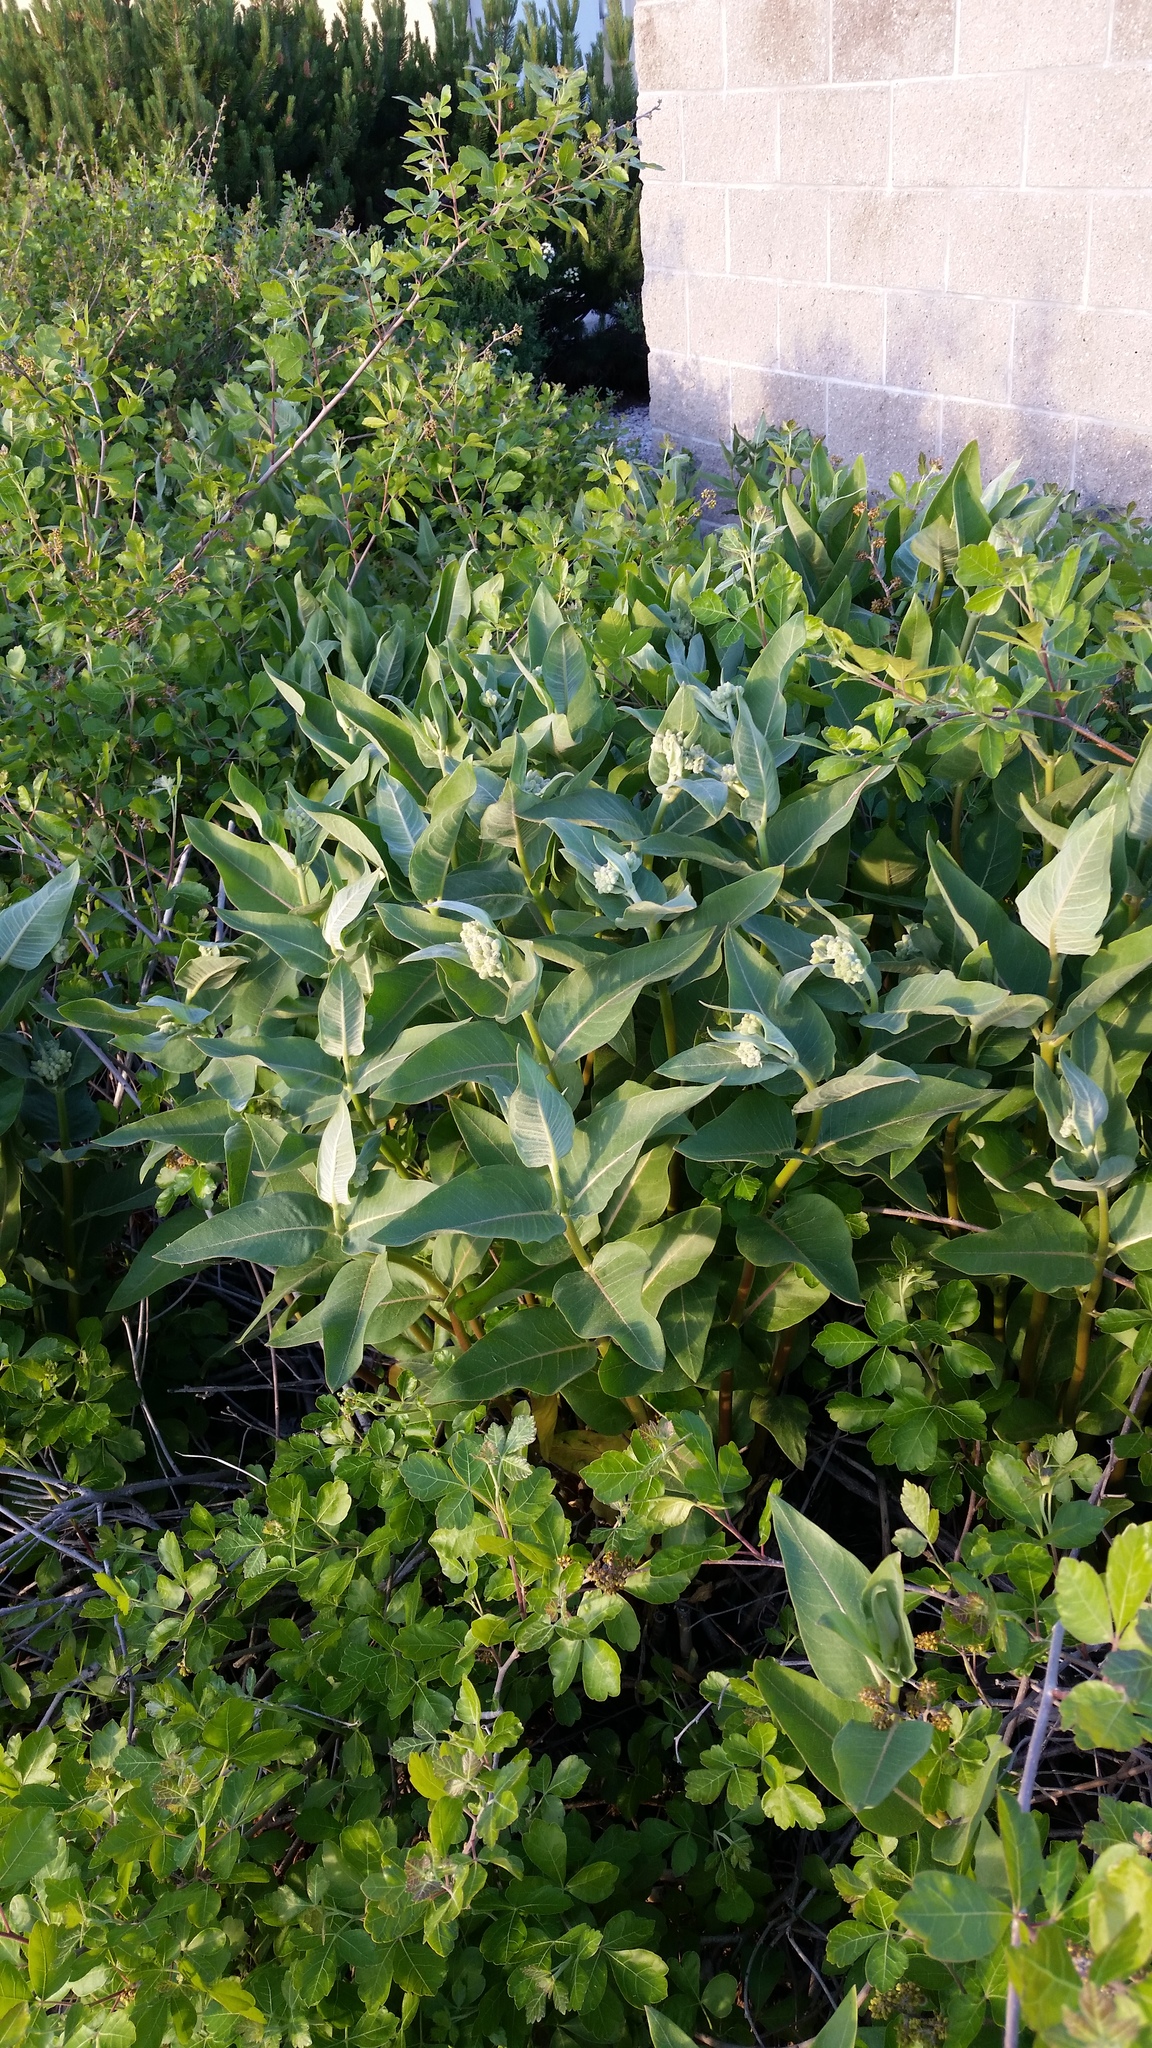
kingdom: Plantae
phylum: Tracheophyta
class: Magnoliopsida
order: Gentianales
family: Apocynaceae
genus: Asclepias
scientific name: Asclepias speciosa
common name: Showy milkweed
